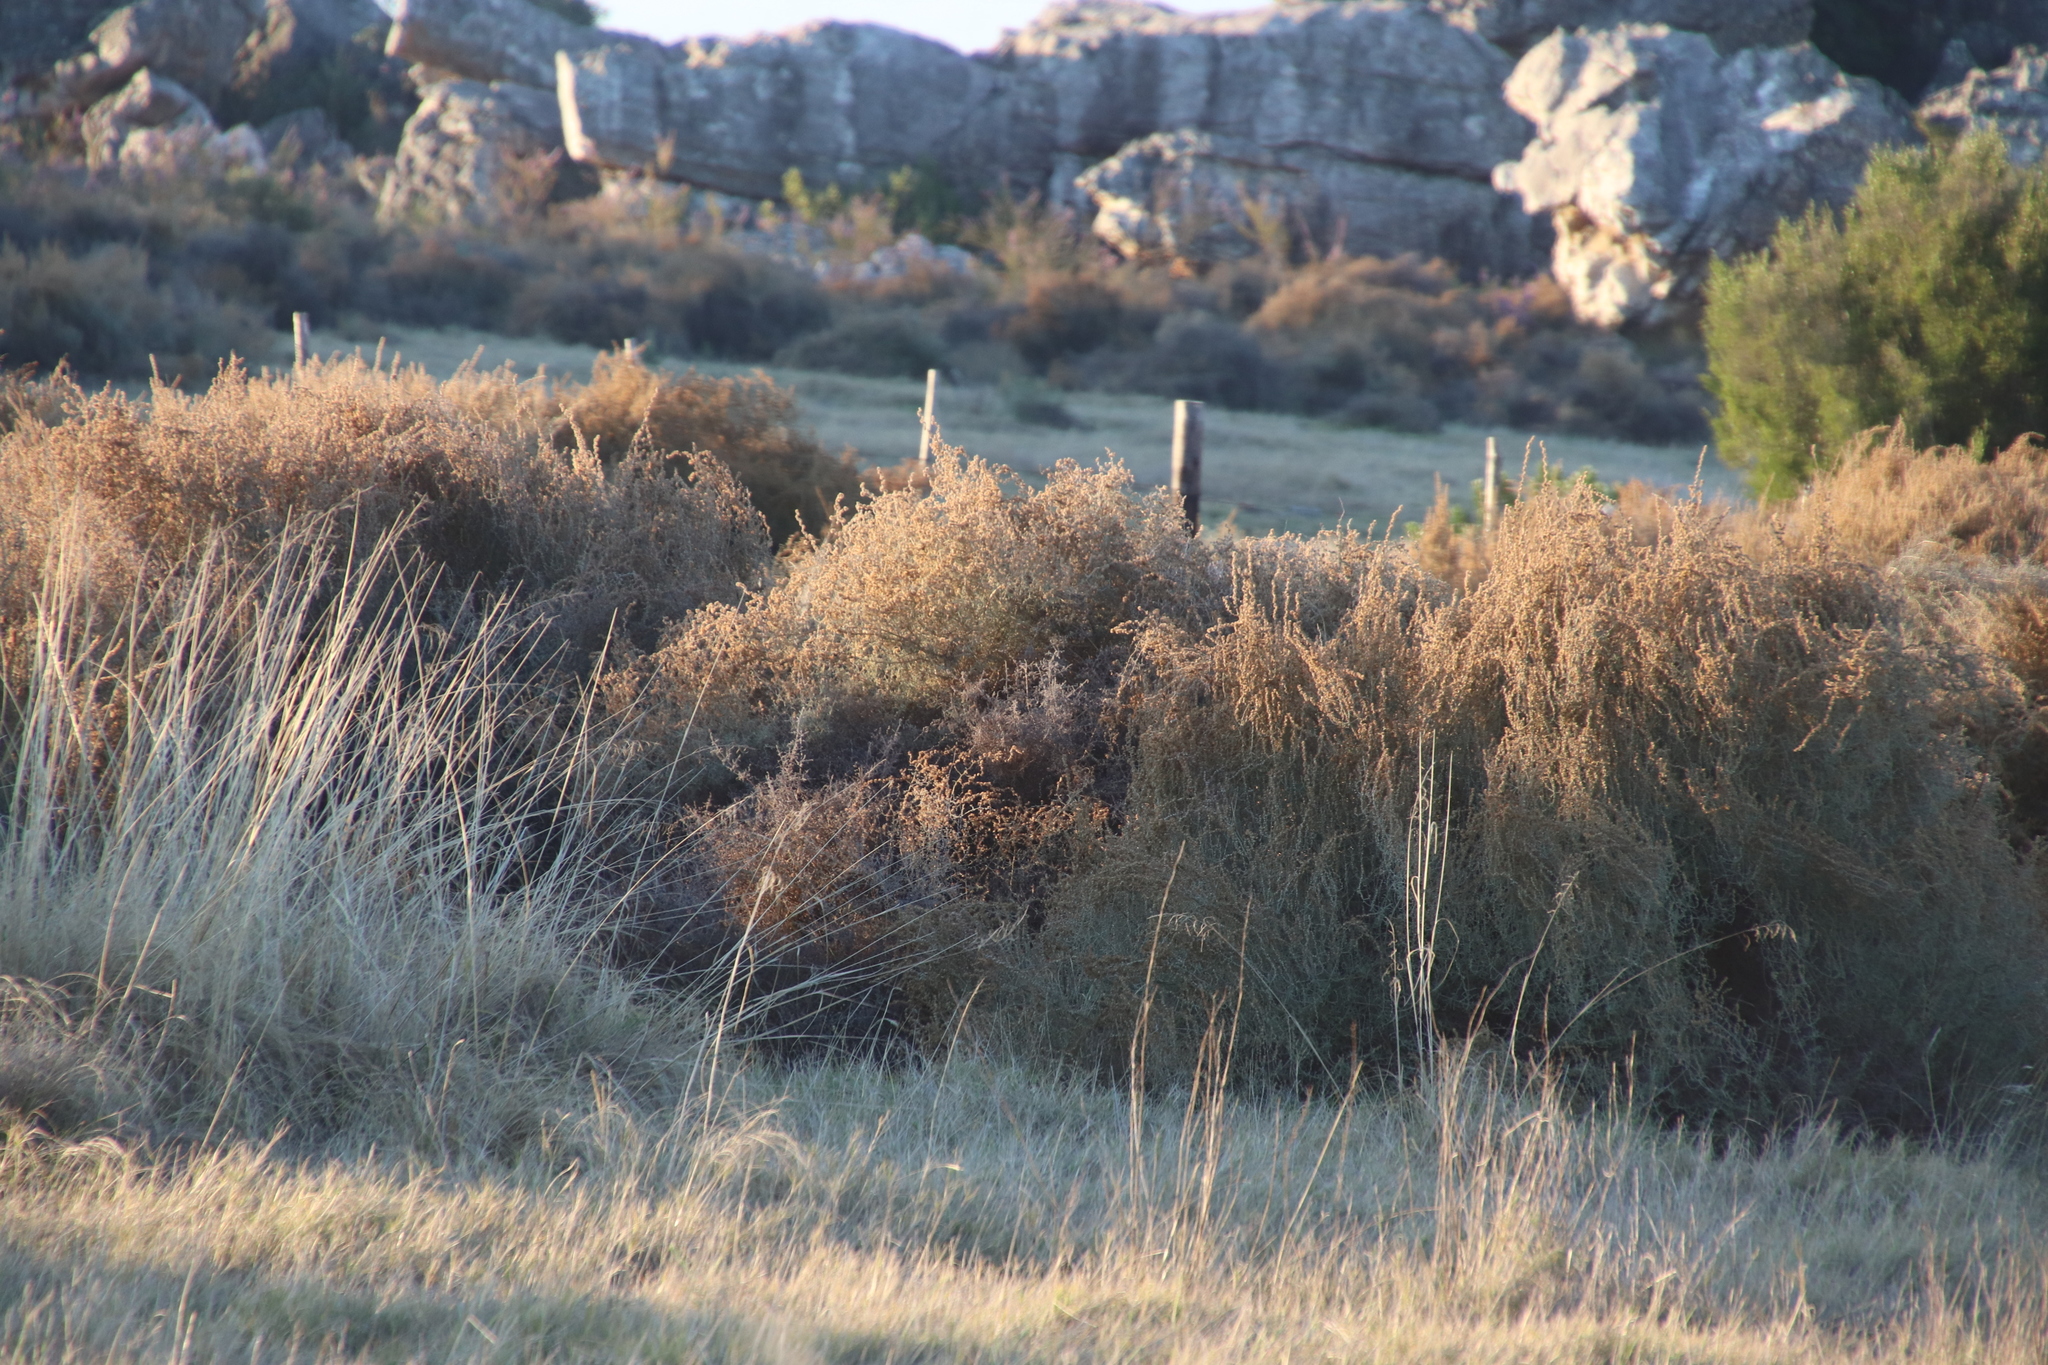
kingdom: Plantae
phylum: Tracheophyta
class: Magnoliopsida
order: Asterales
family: Asteraceae
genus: Seriphium
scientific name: Seriphium plumosum
